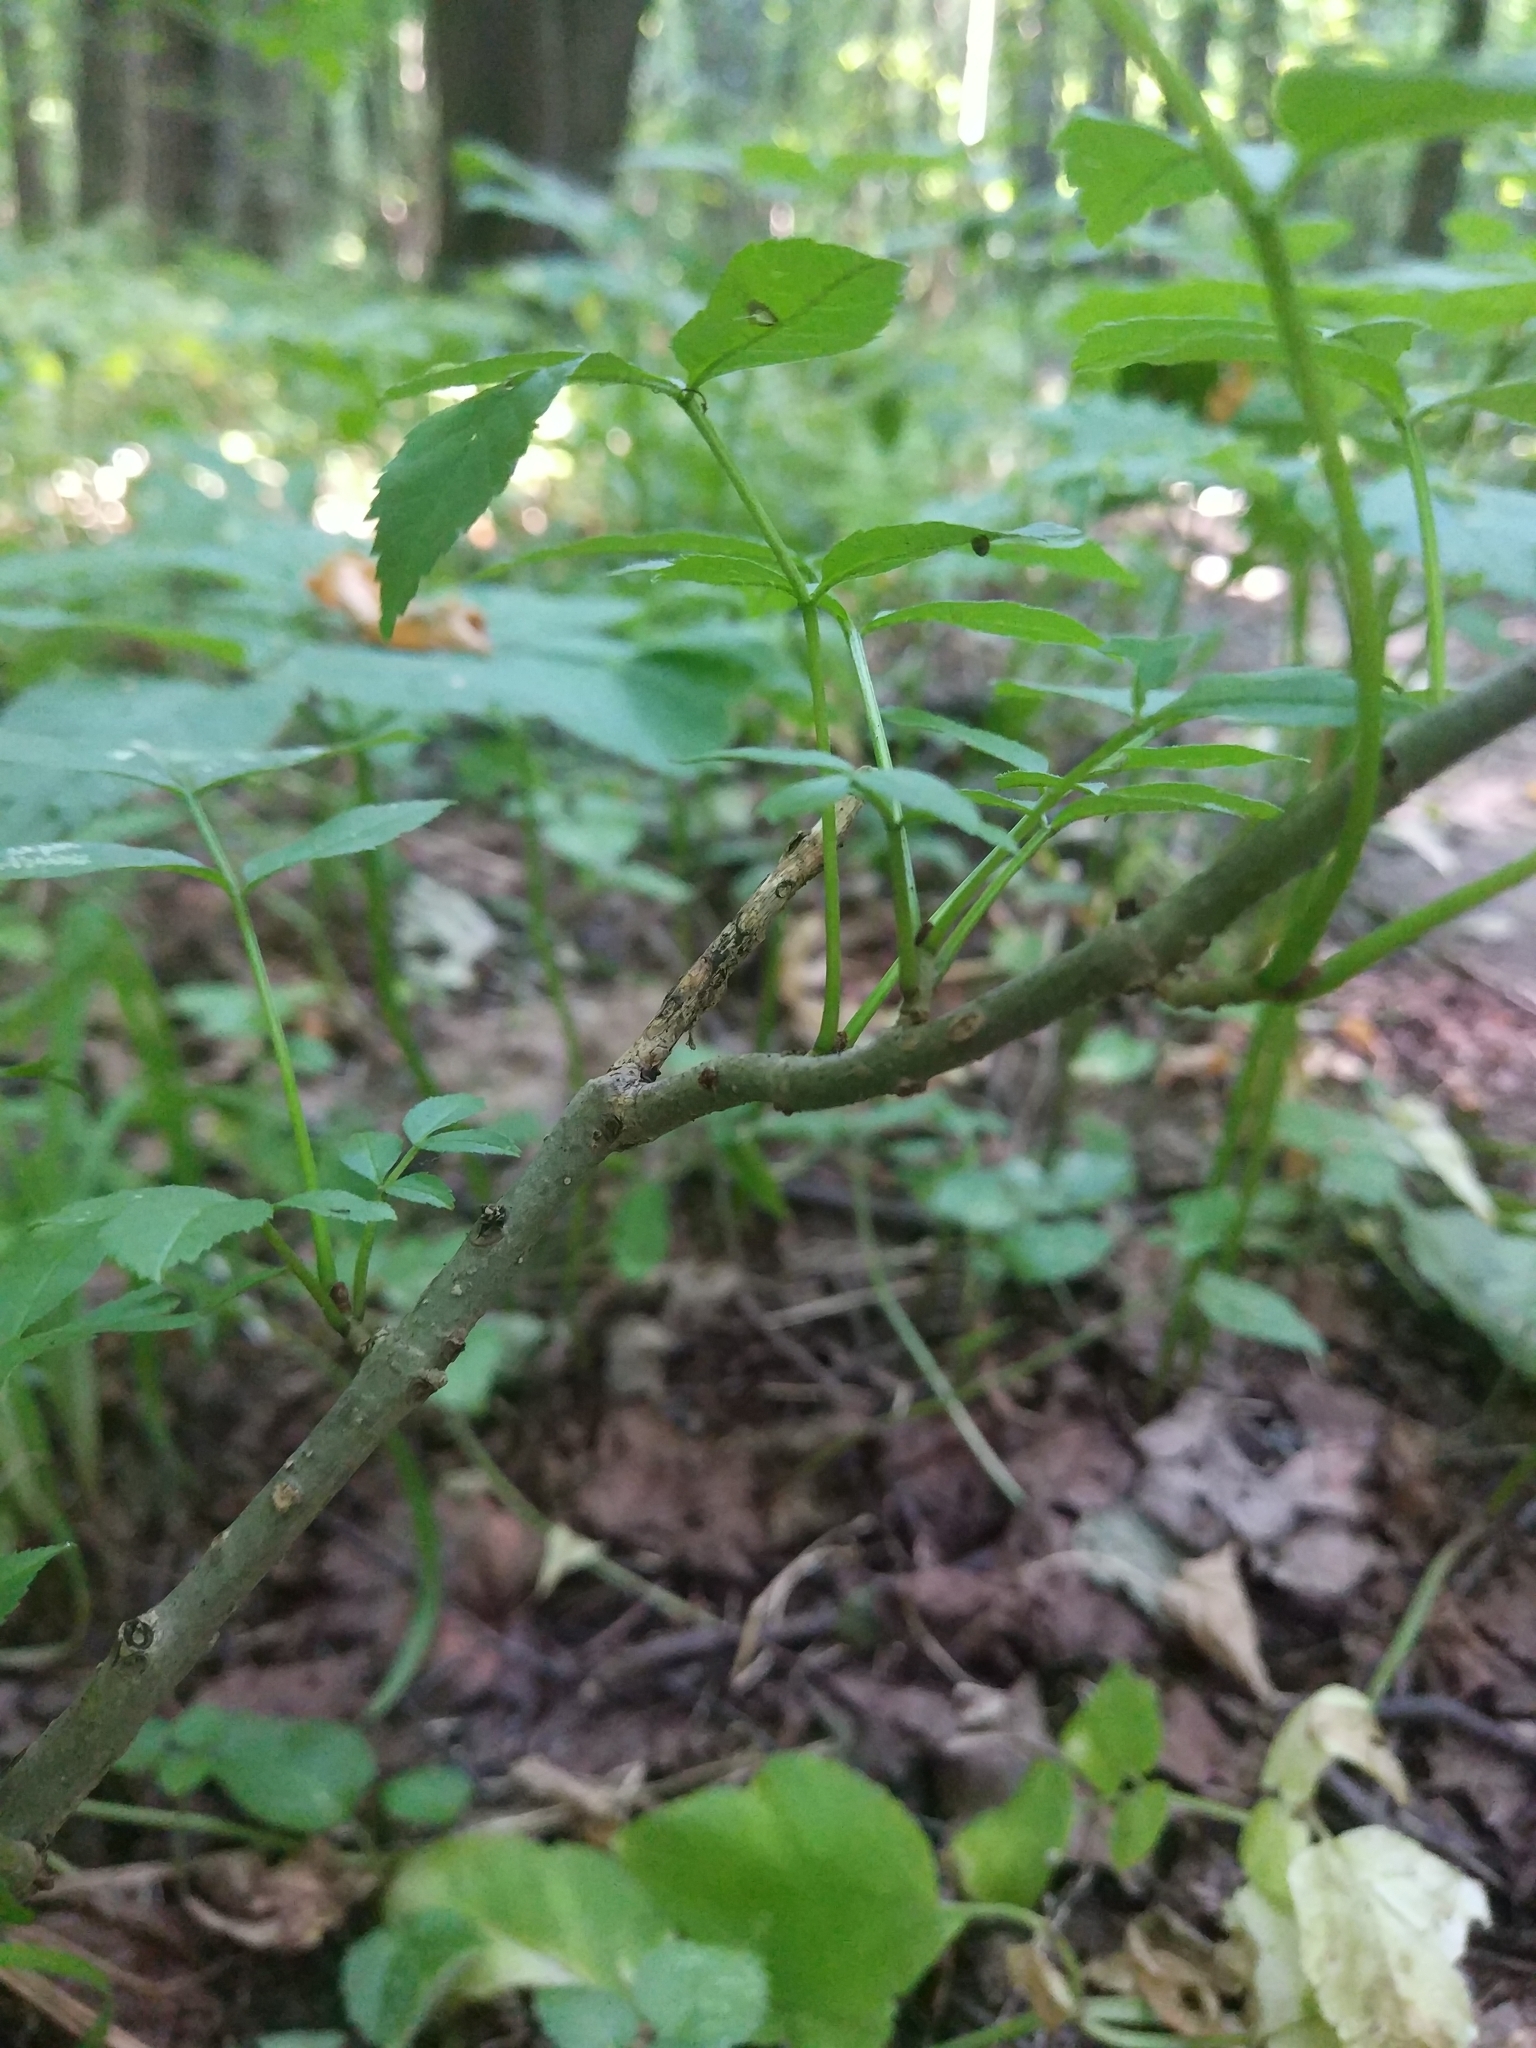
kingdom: Plantae
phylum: Tracheophyta
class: Magnoliopsida
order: Lamiales
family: Oleaceae
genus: Fraxinus
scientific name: Fraxinus excelsior
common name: European ash
